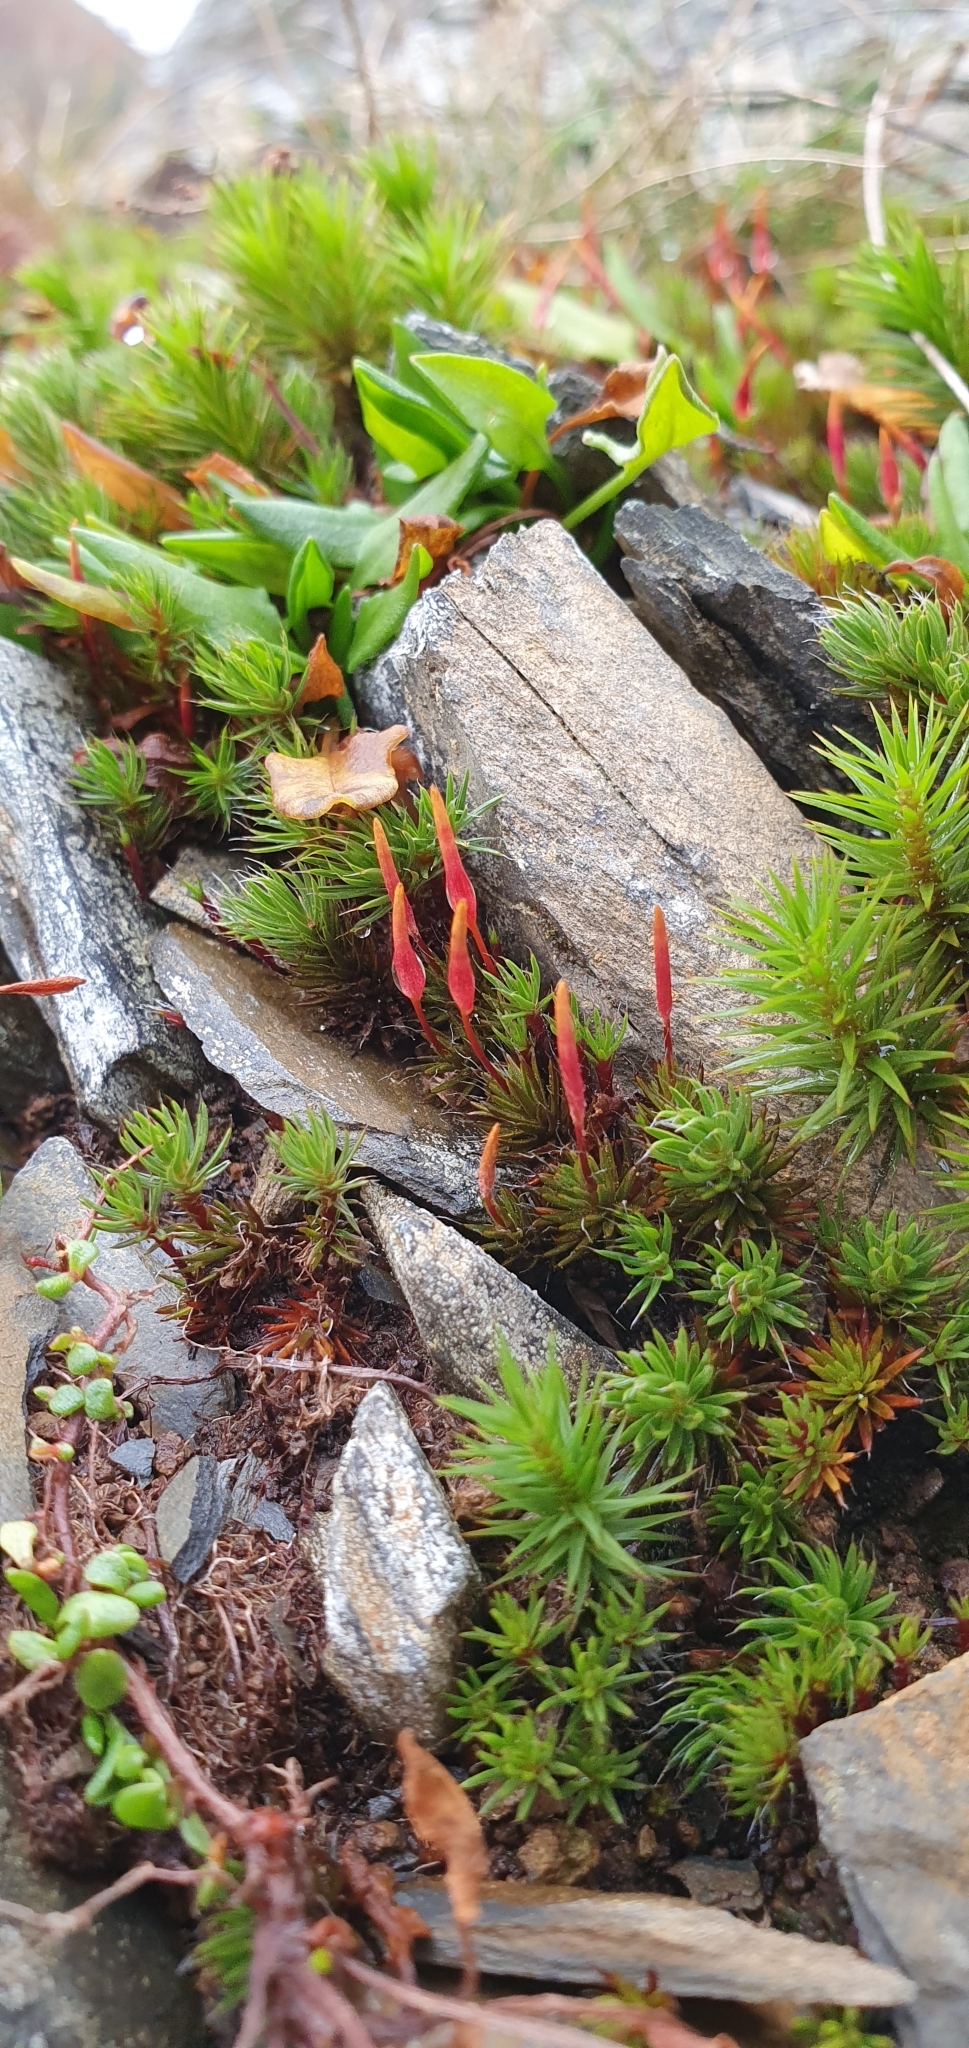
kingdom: Plantae
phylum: Bryophyta
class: Polytrichopsida
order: Polytrichales
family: Polytrichaceae
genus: Polytrichum
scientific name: Polytrichum piliferum
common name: Bristly haircap
